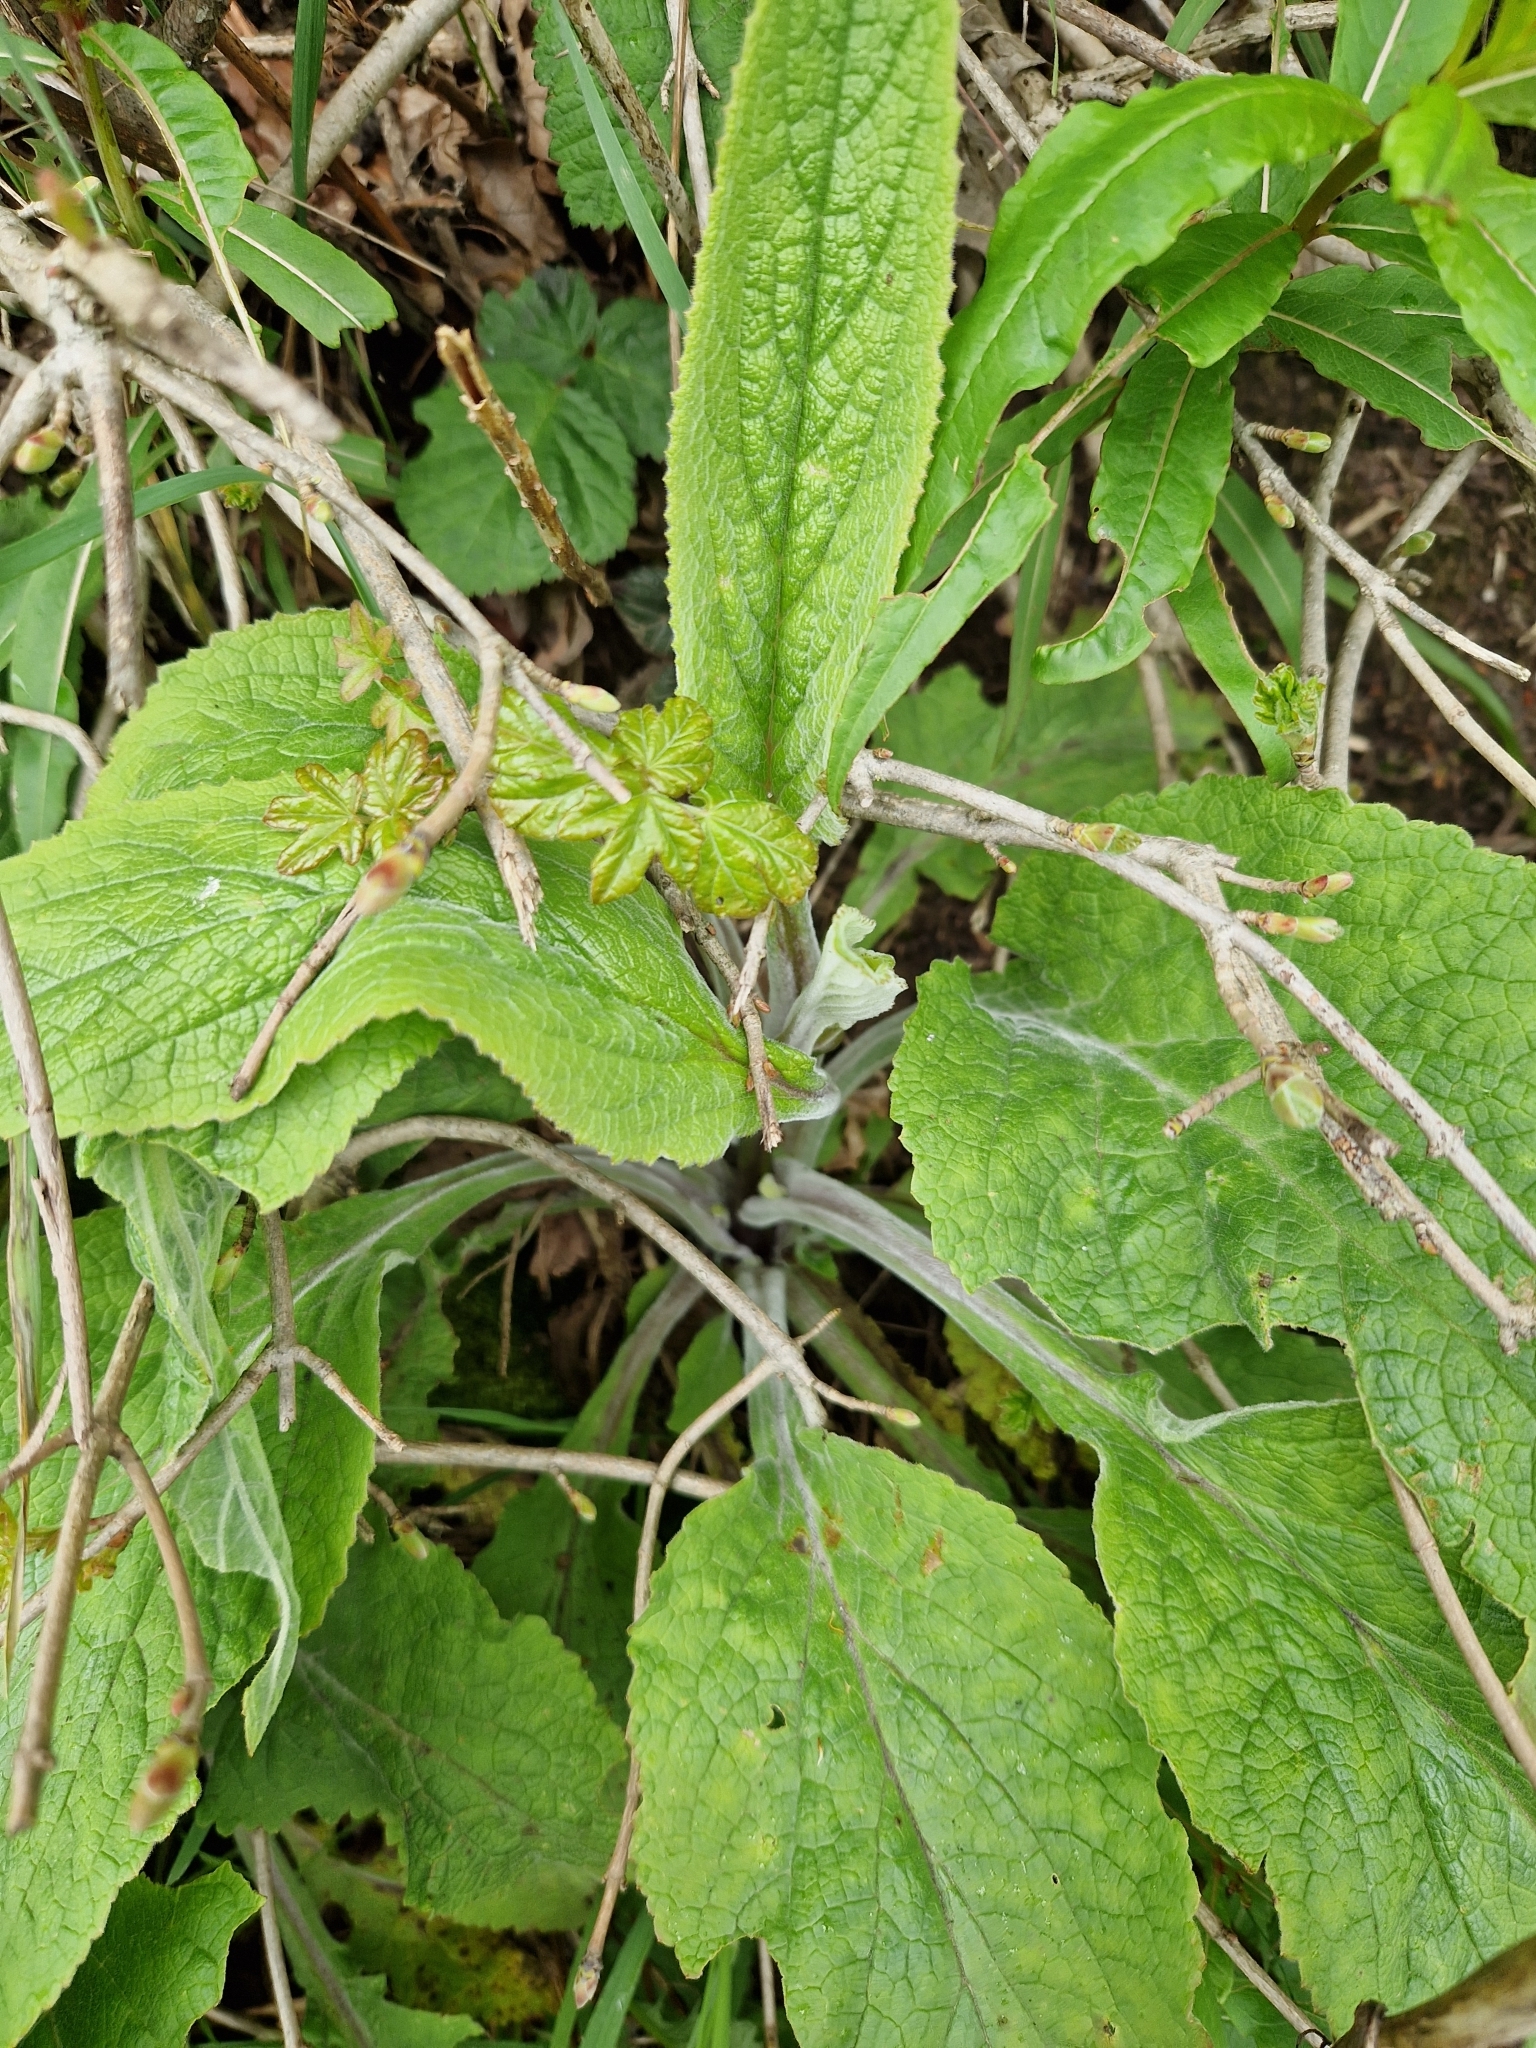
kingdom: Plantae
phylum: Tracheophyta
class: Magnoliopsida
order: Lamiales
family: Plantaginaceae
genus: Digitalis
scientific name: Digitalis purpurea
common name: Foxglove
